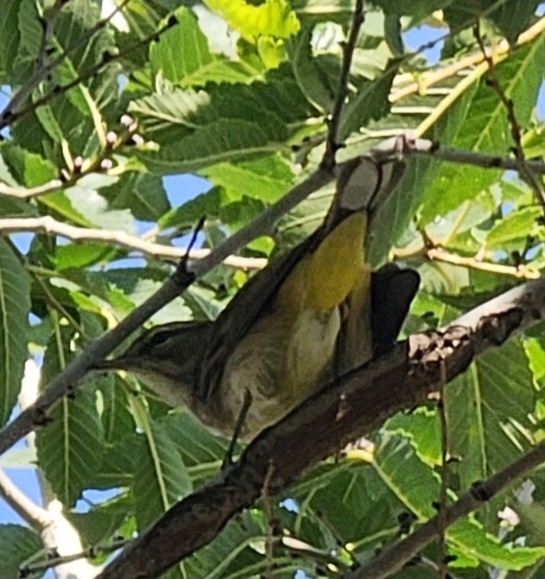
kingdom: Animalia
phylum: Chordata
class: Aves
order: Passeriformes
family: Parulidae
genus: Setophaga
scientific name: Setophaga palmarum
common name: Palm warbler
